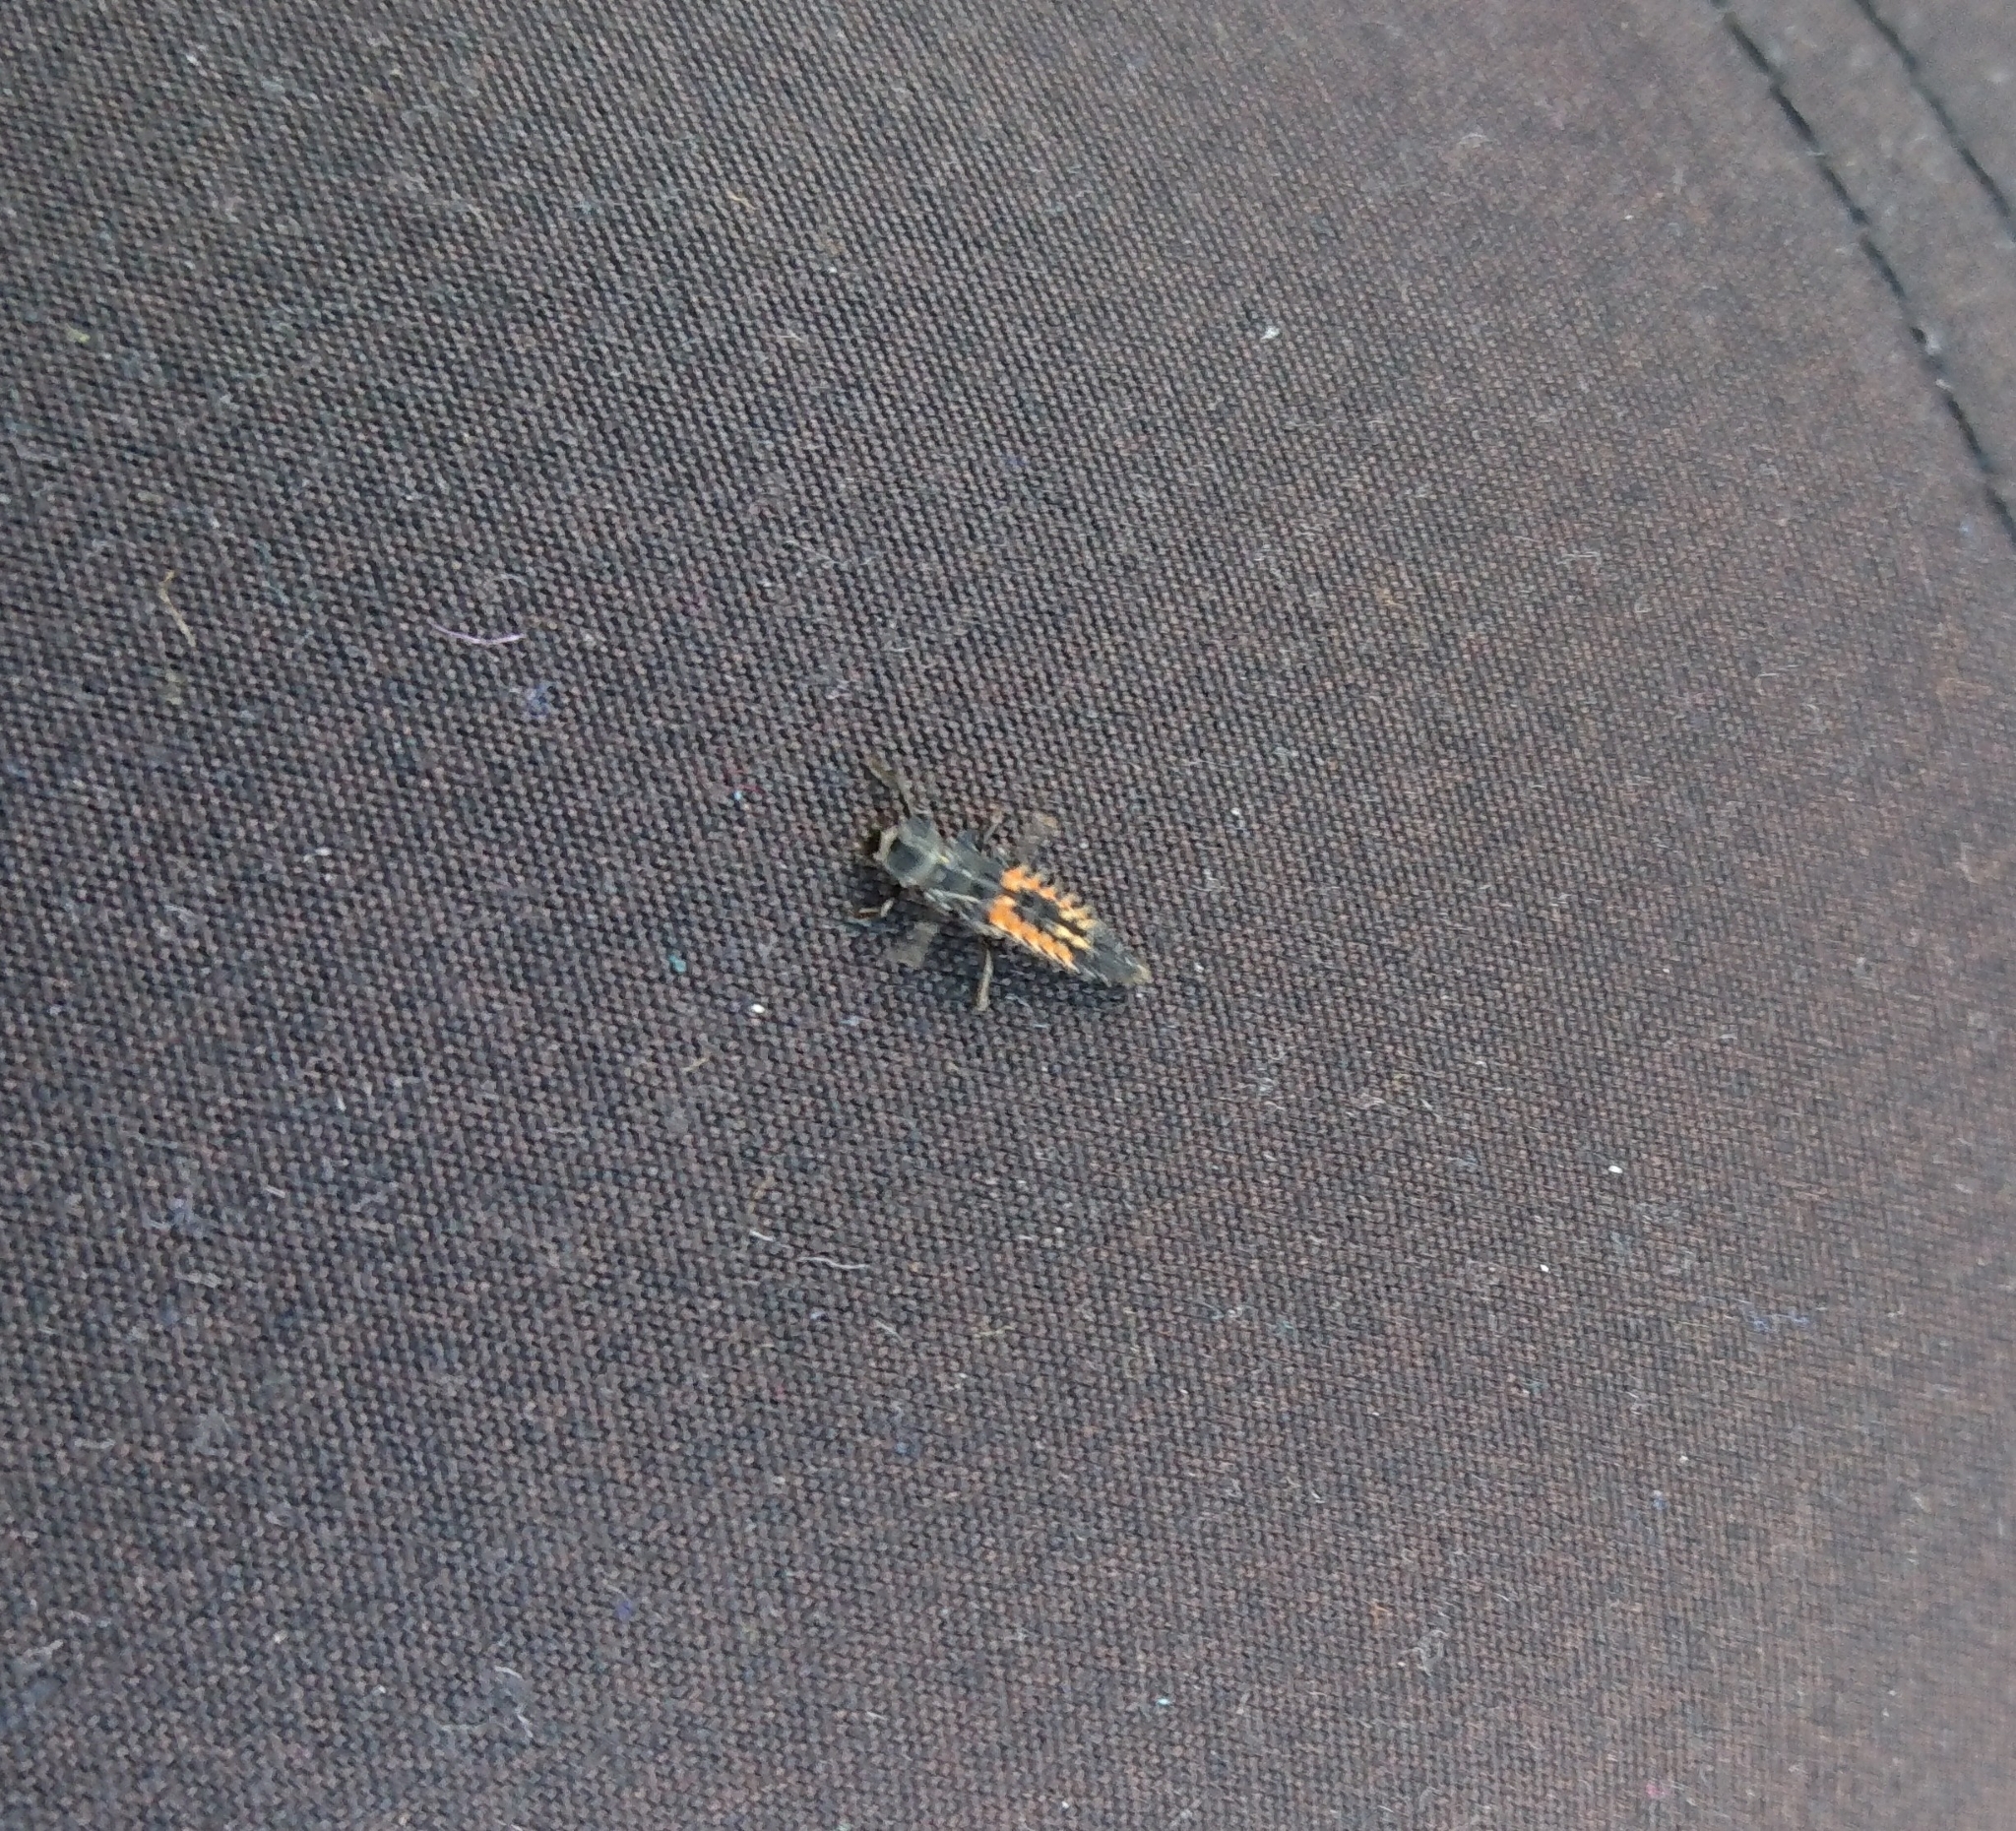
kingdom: Animalia
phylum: Arthropoda
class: Insecta
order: Coleoptera
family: Coccinellidae
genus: Harmonia
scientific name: Harmonia axyridis
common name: Harlequin ladybird
